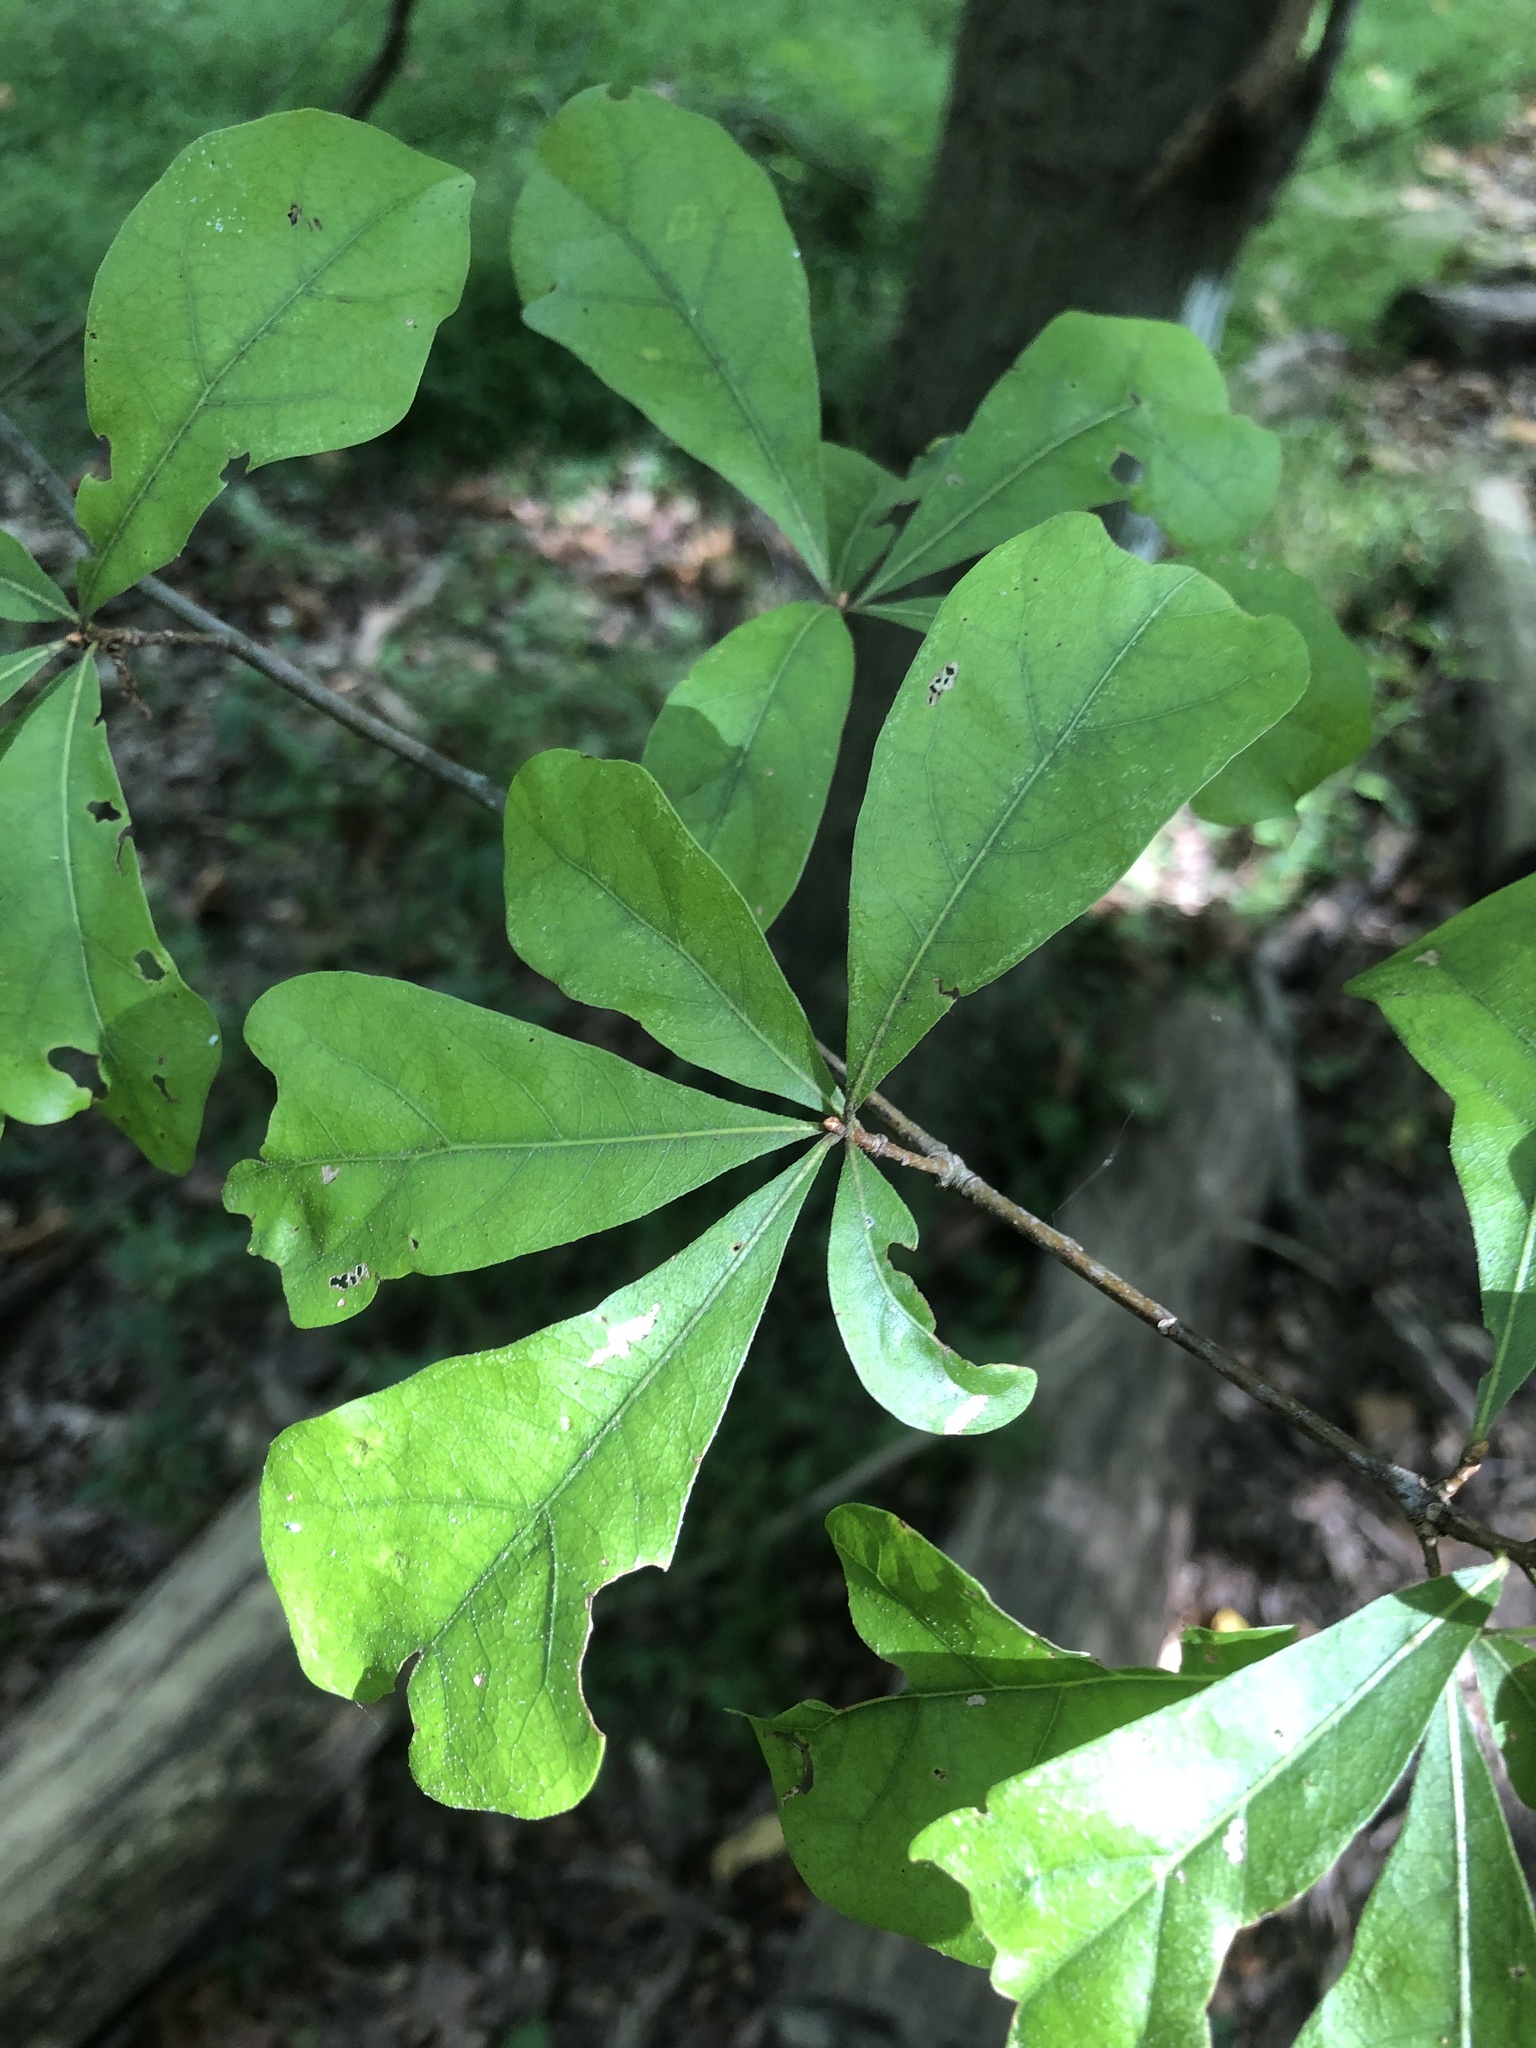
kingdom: Plantae
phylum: Tracheophyta
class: Magnoliopsida
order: Fagales
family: Fagaceae
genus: Quercus
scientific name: Quercus nigra
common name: Water oak
